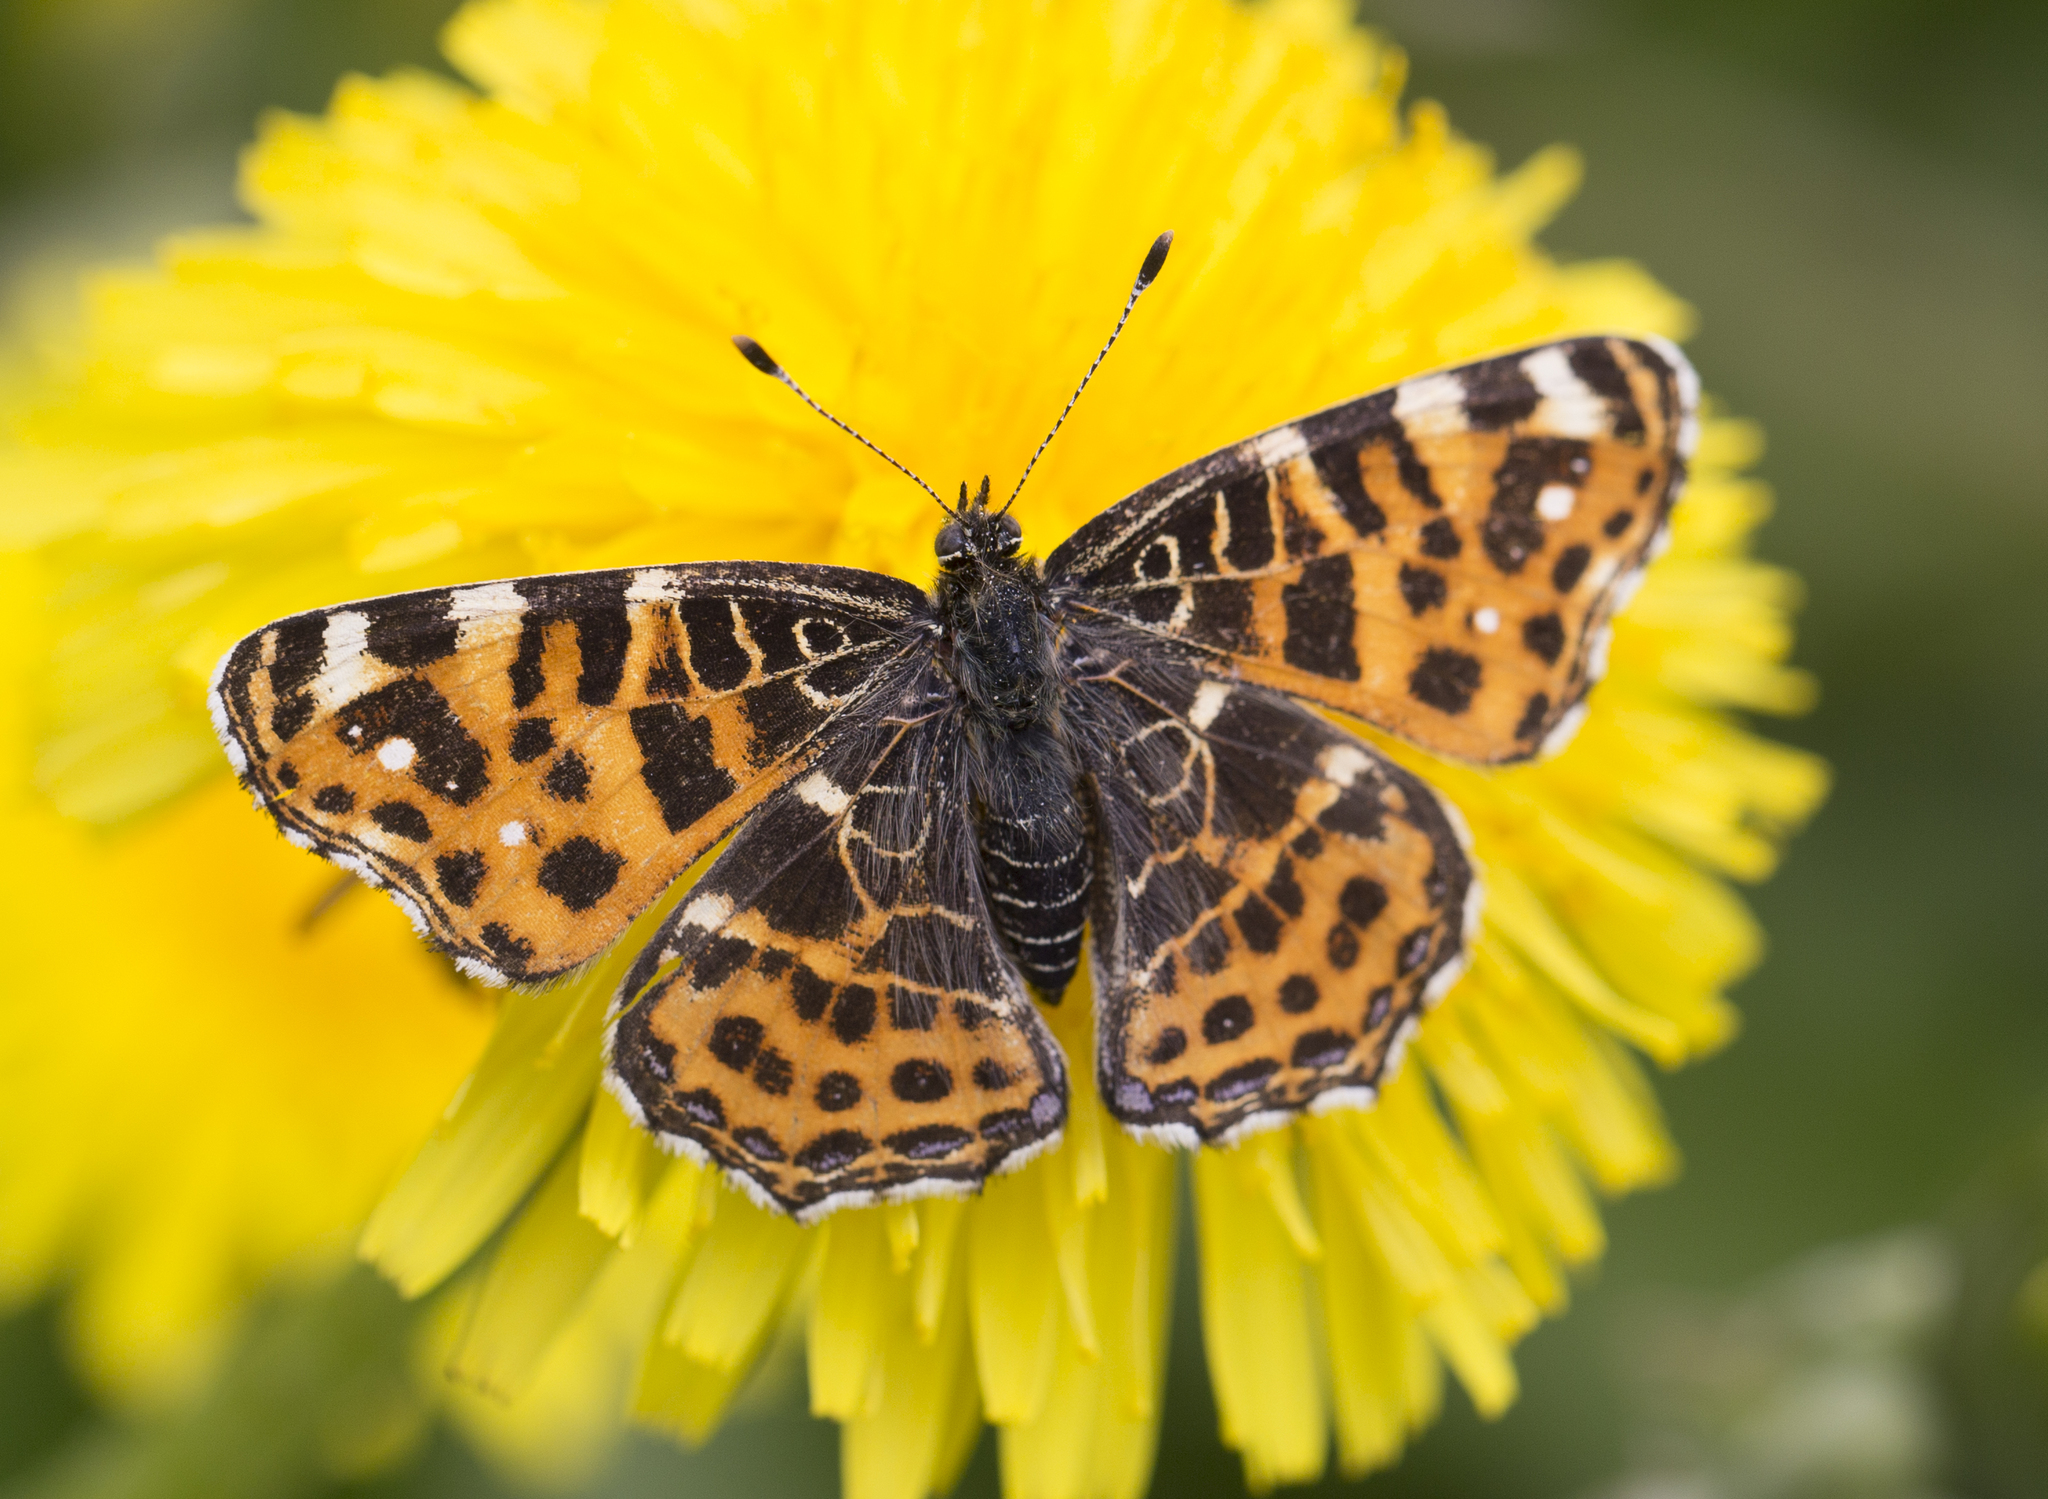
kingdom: Animalia
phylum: Arthropoda
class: Insecta
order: Lepidoptera
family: Nymphalidae
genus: Araschnia
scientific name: Araschnia levana
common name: Map butterfly
